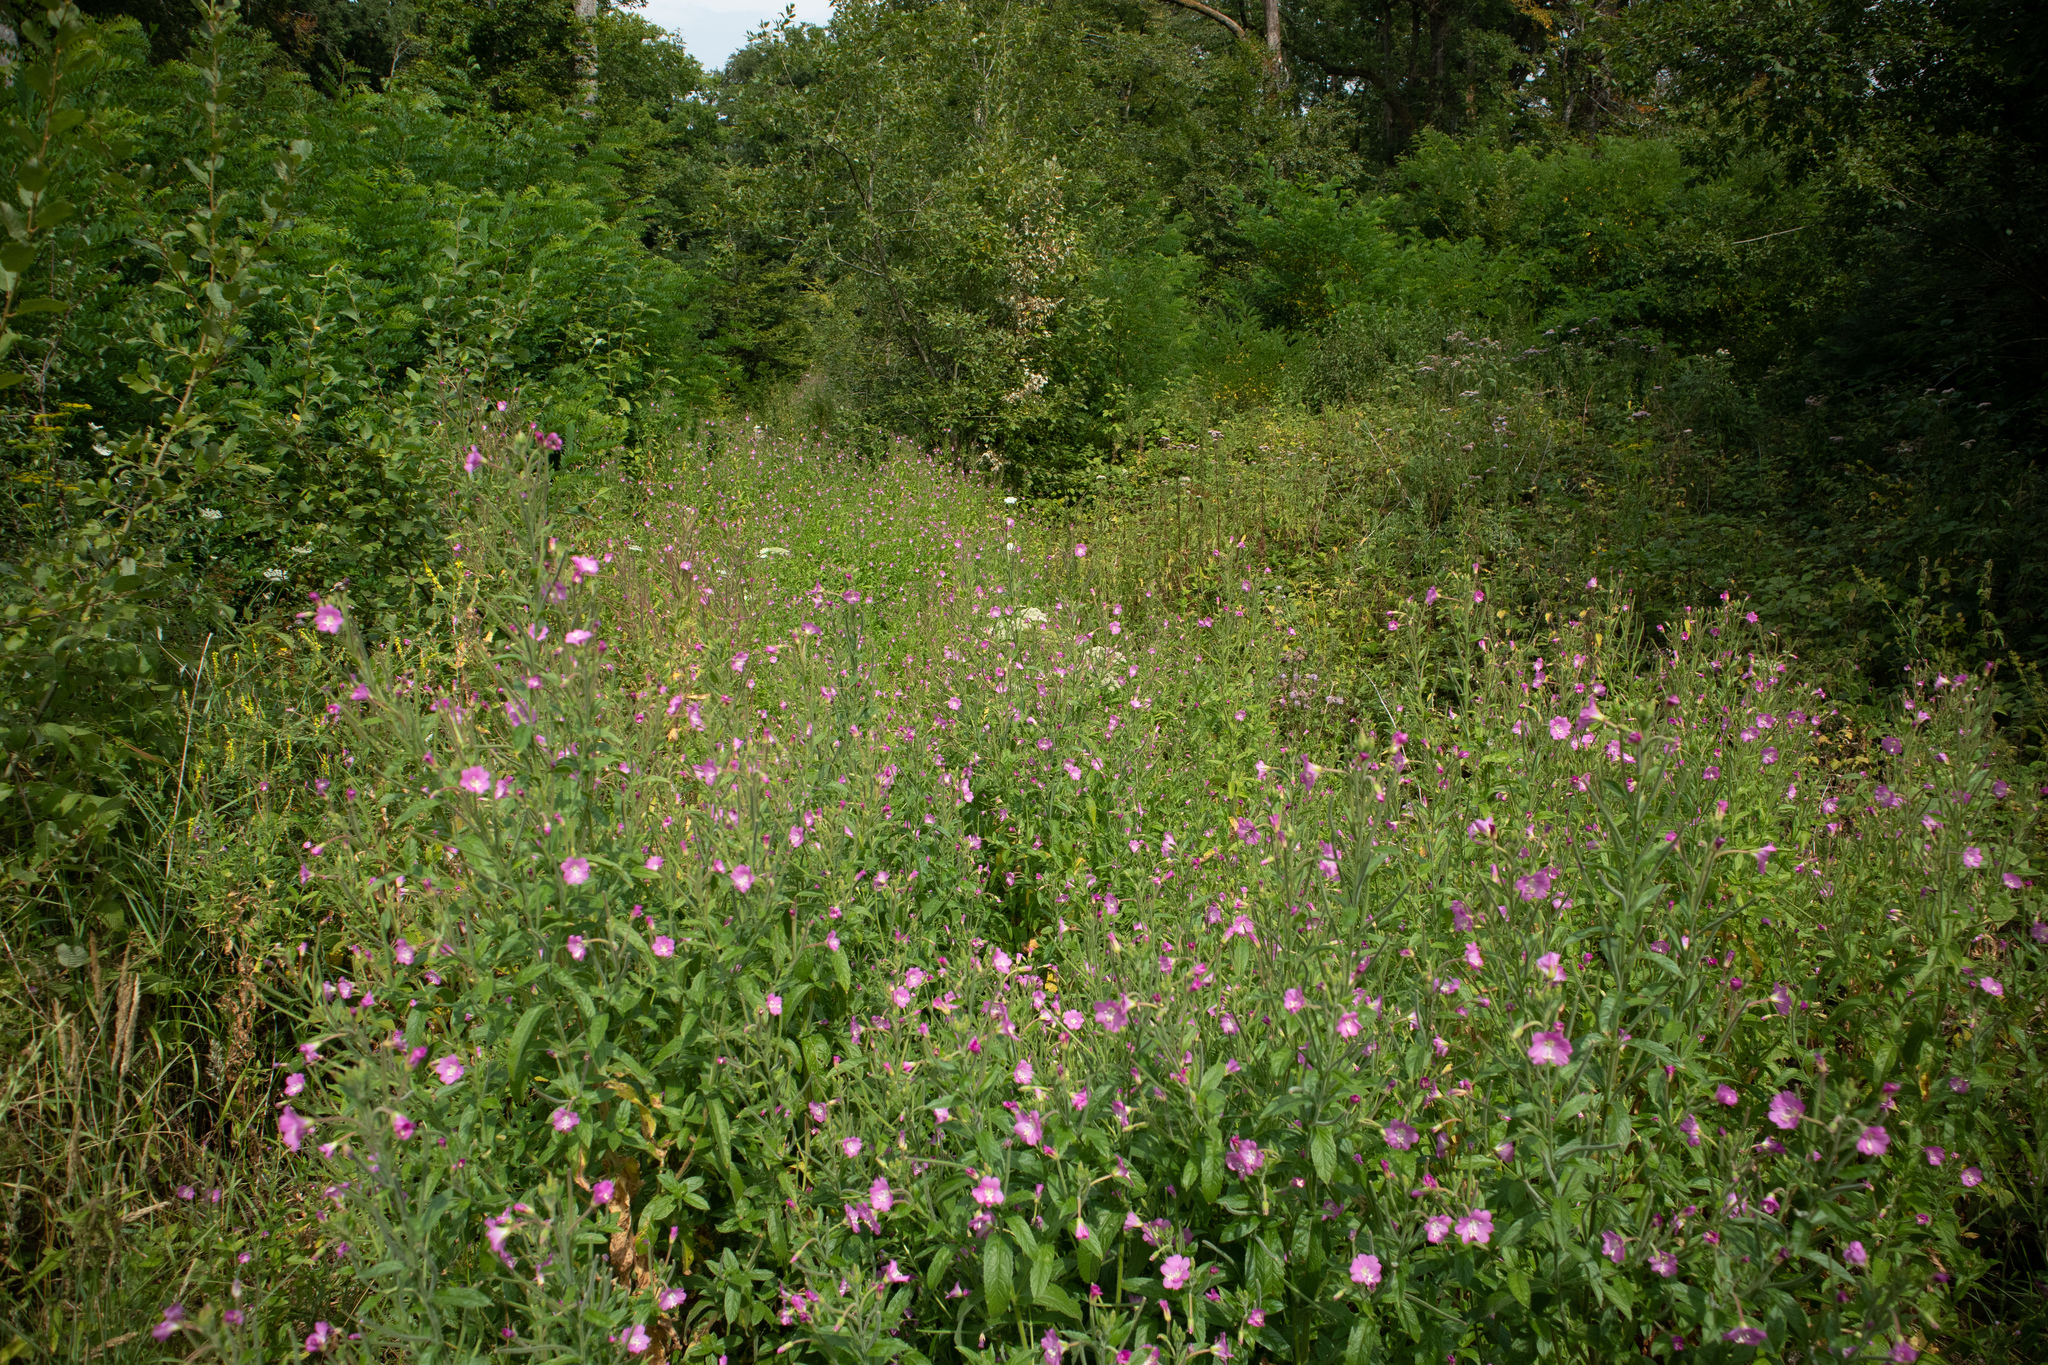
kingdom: Plantae
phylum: Tracheophyta
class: Magnoliopsida
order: Myrtales
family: Onagraceae
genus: Epilobium
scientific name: Epilobium hirsutum
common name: Great willowherb
